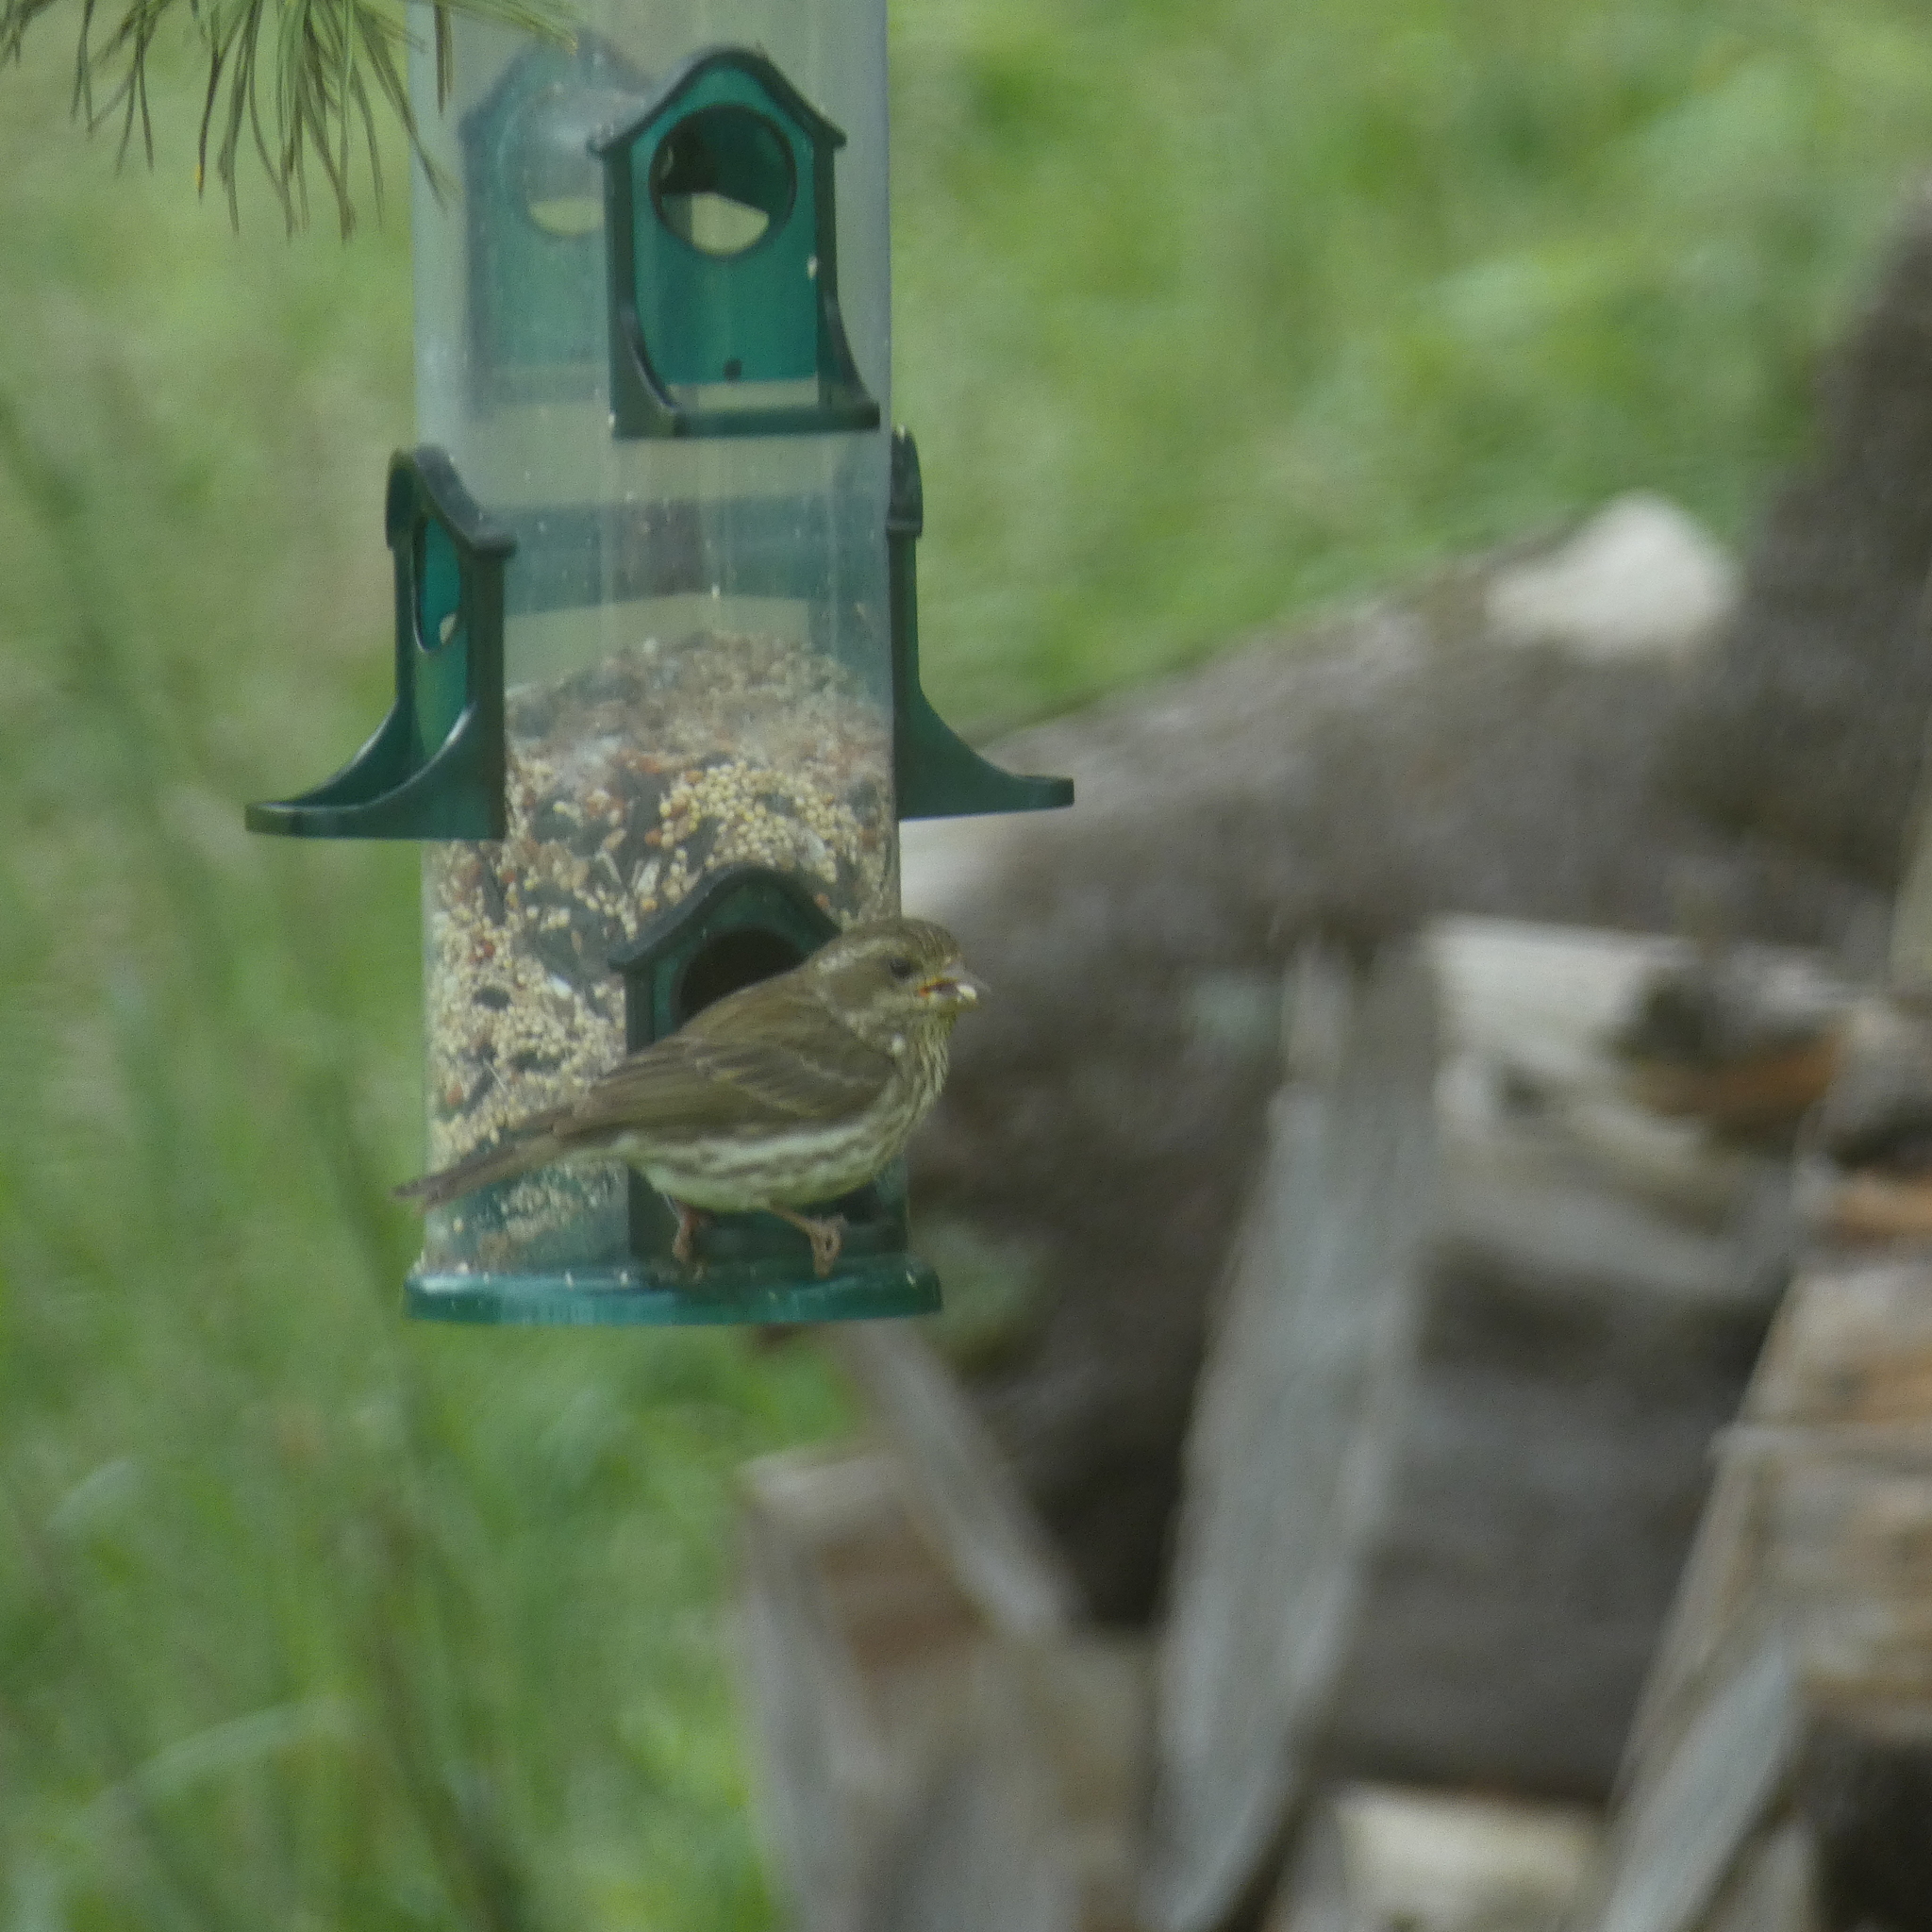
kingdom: Animalia
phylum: Chordata
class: Aves
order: Passeriformes
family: Fringillidae
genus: Haemorhous
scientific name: Haemorhous purpureus
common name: Purple finch
